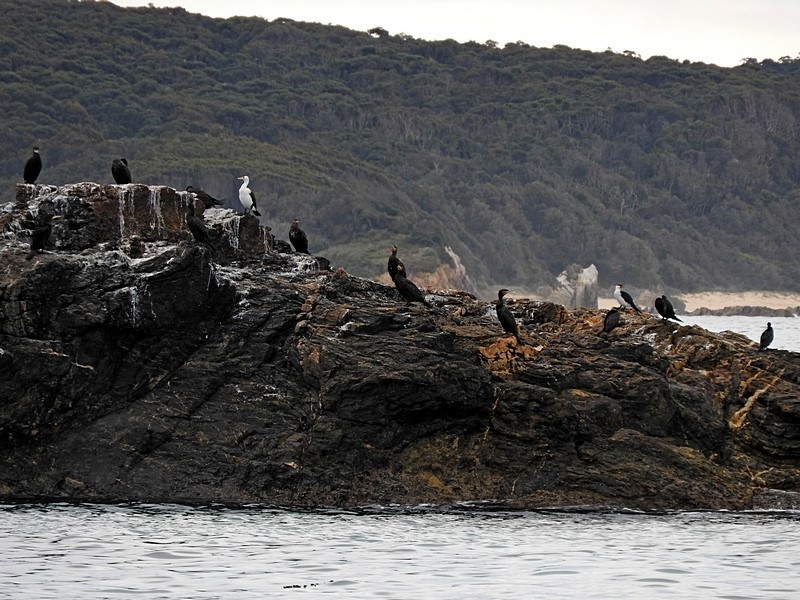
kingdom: Animalia
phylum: Chordata
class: Aves
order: Suliformes
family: Phalacrocoracidae
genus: Phalacrocorax
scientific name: Phalacrocorax carbo
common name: Great cormorant
